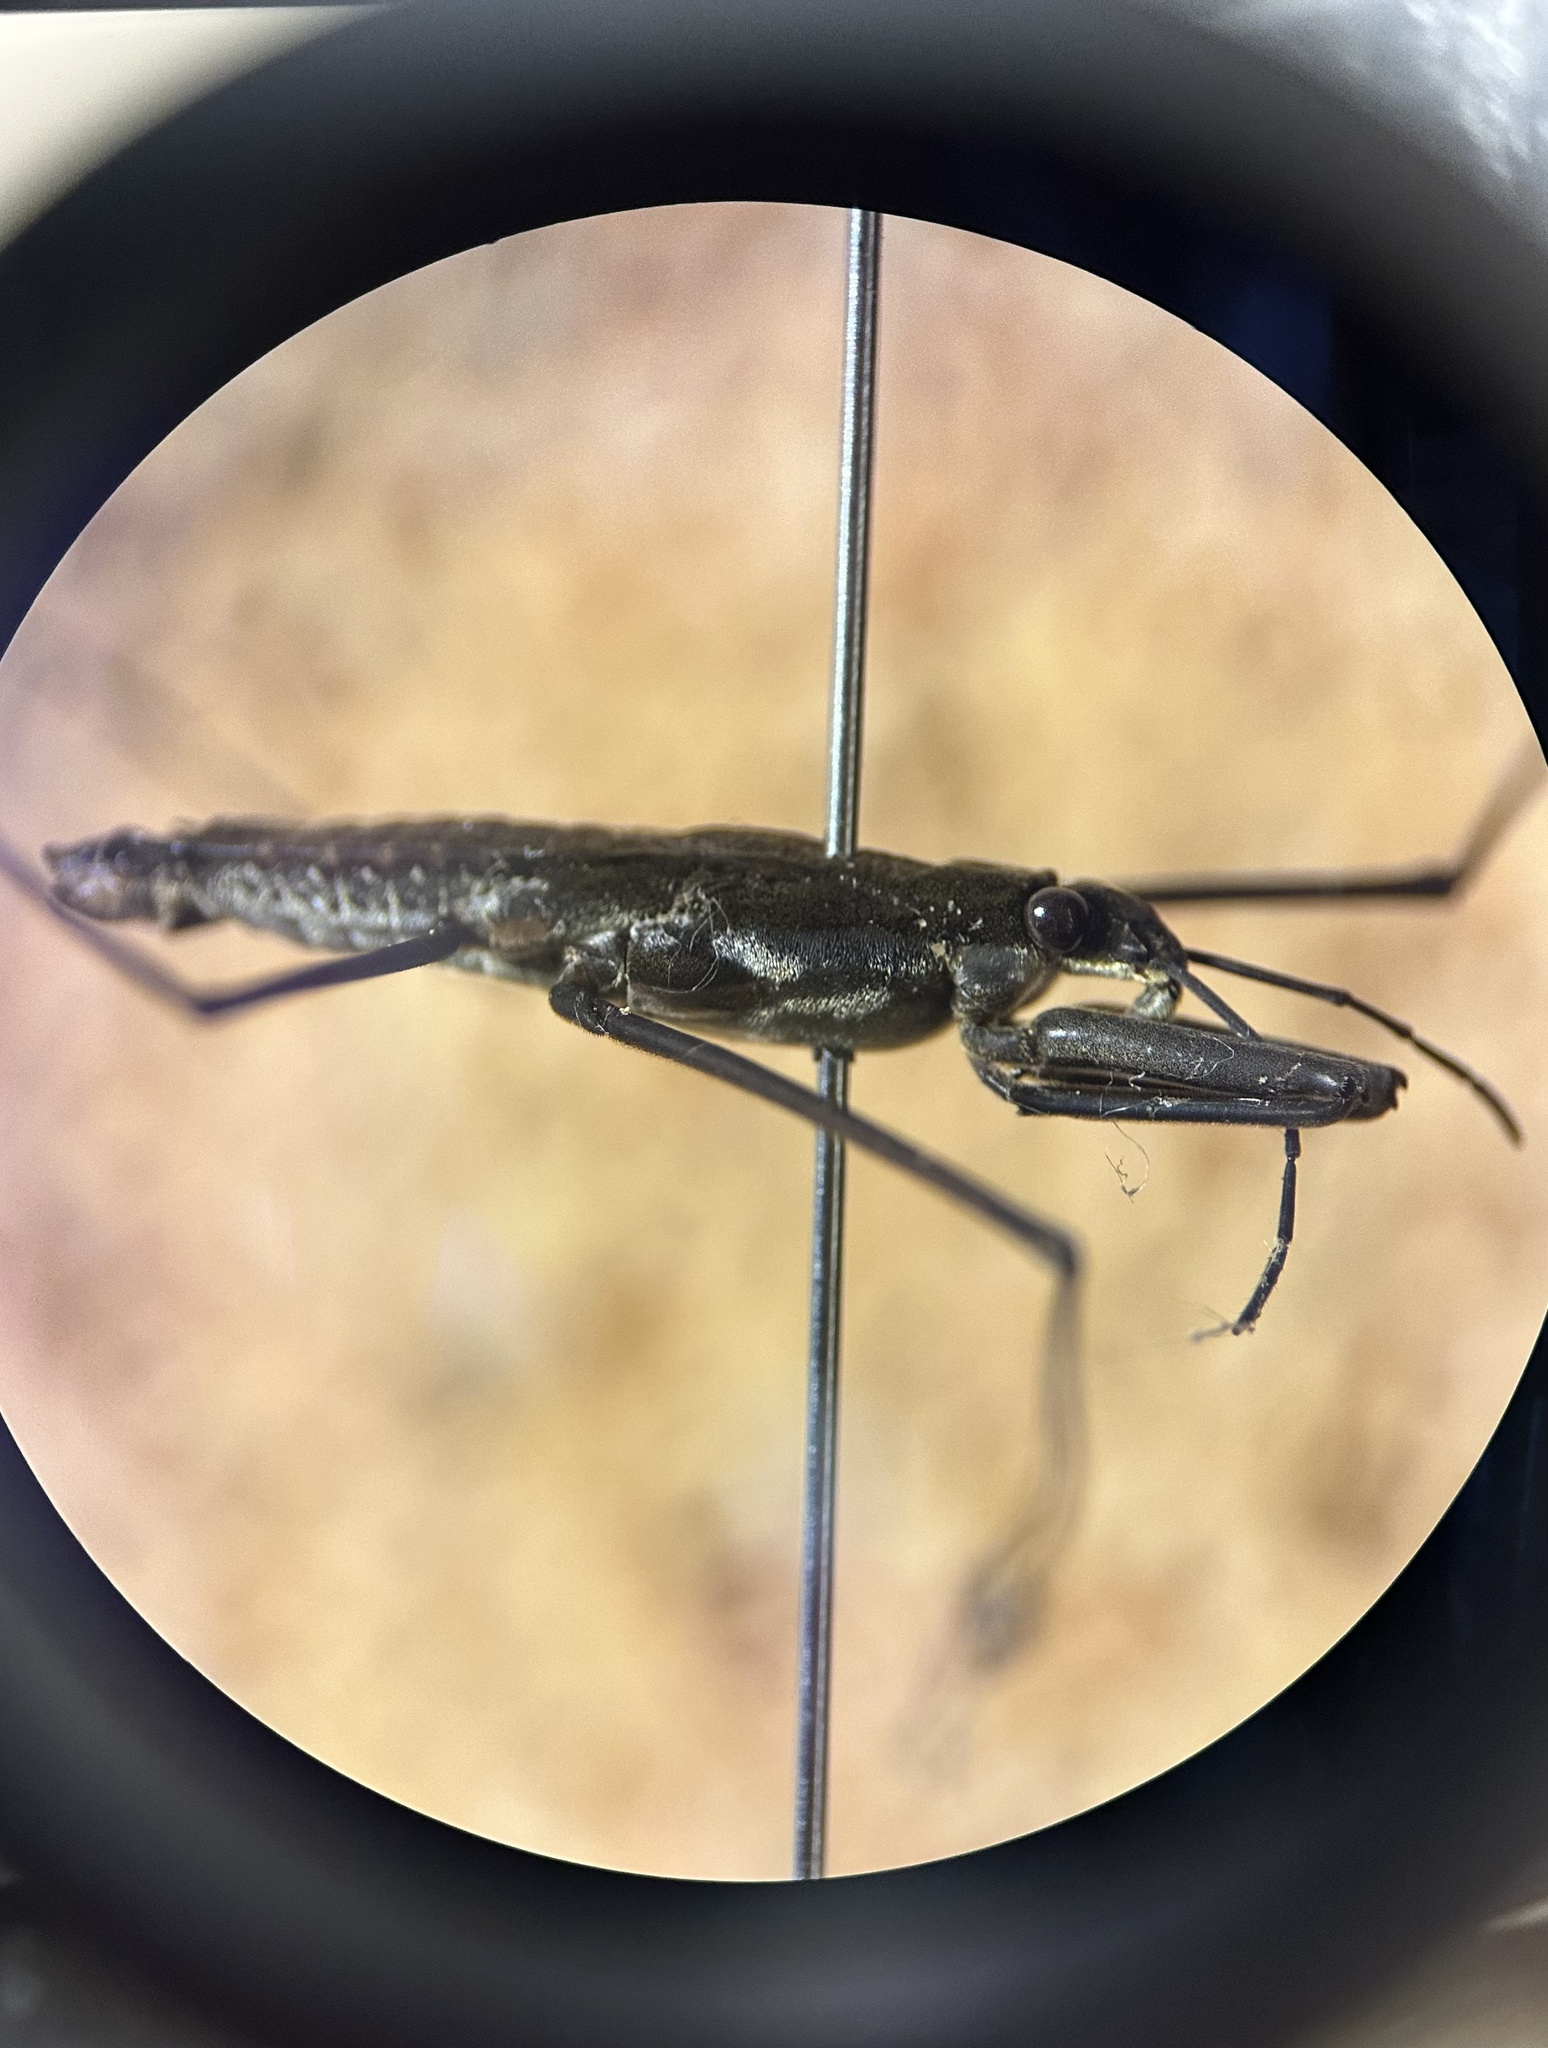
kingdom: Animalia
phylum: Arthropoda
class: Insecta
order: Hemiptera
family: Gerridae
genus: Aquarius
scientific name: Aquarius remigis
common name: Common water strider
